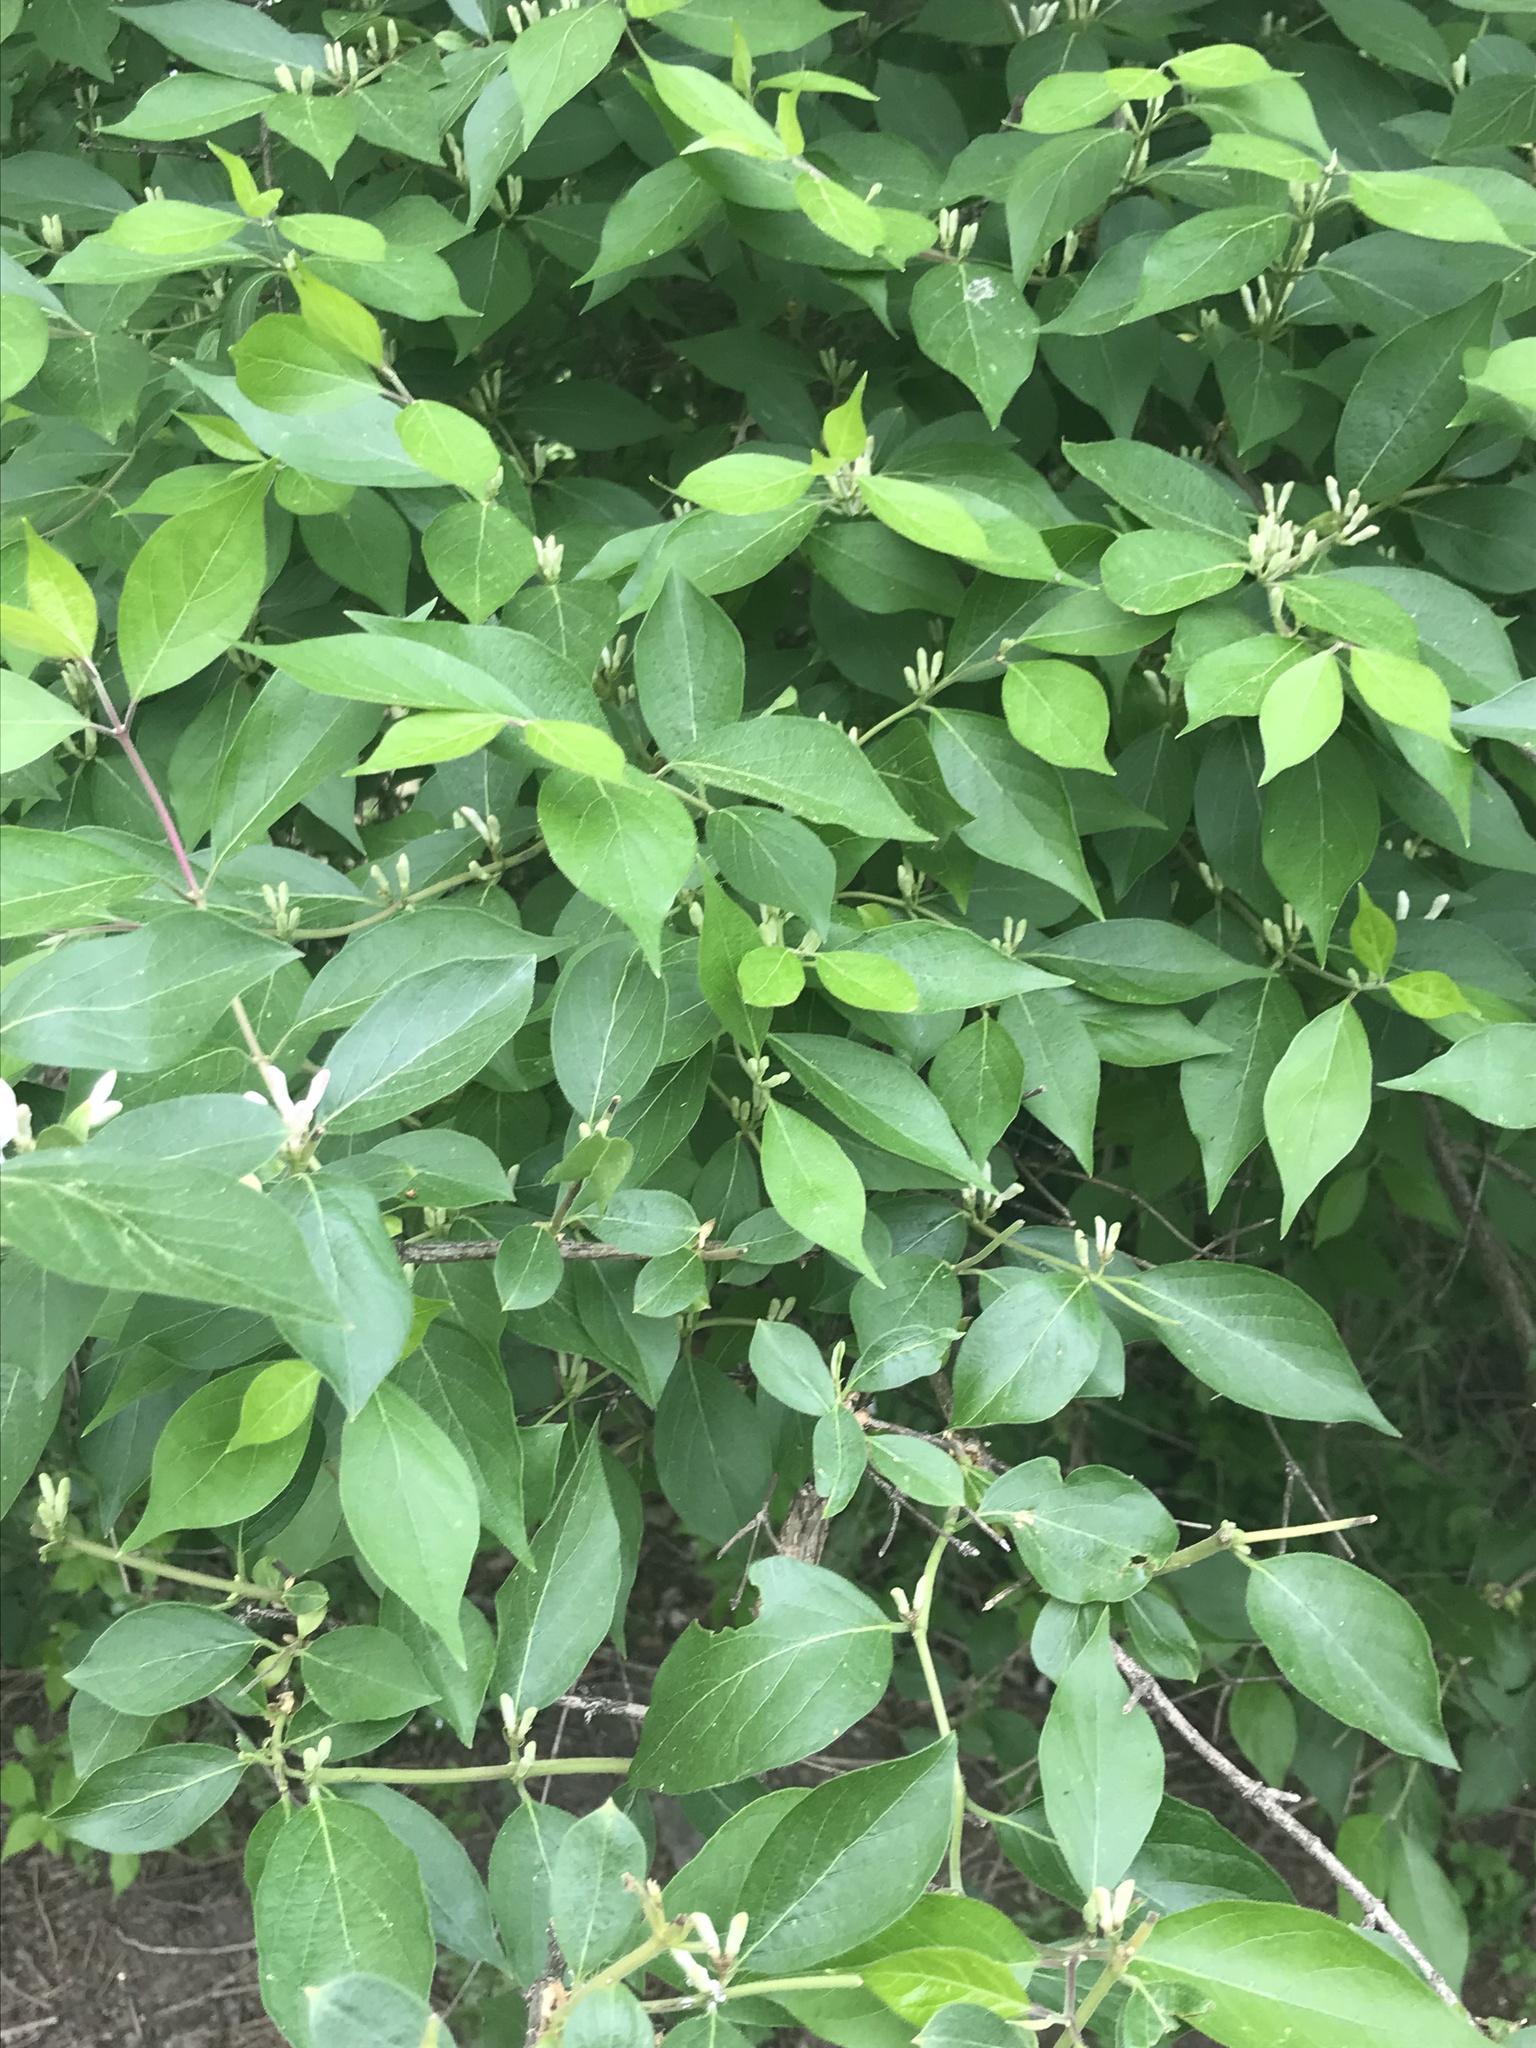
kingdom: Plantae
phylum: Tracheophyta
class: Magnoliopsida
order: Dipsacales
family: Caprifoliaceae
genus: Lonicera
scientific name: Lonicera maackii
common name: Amur honeysuckle
